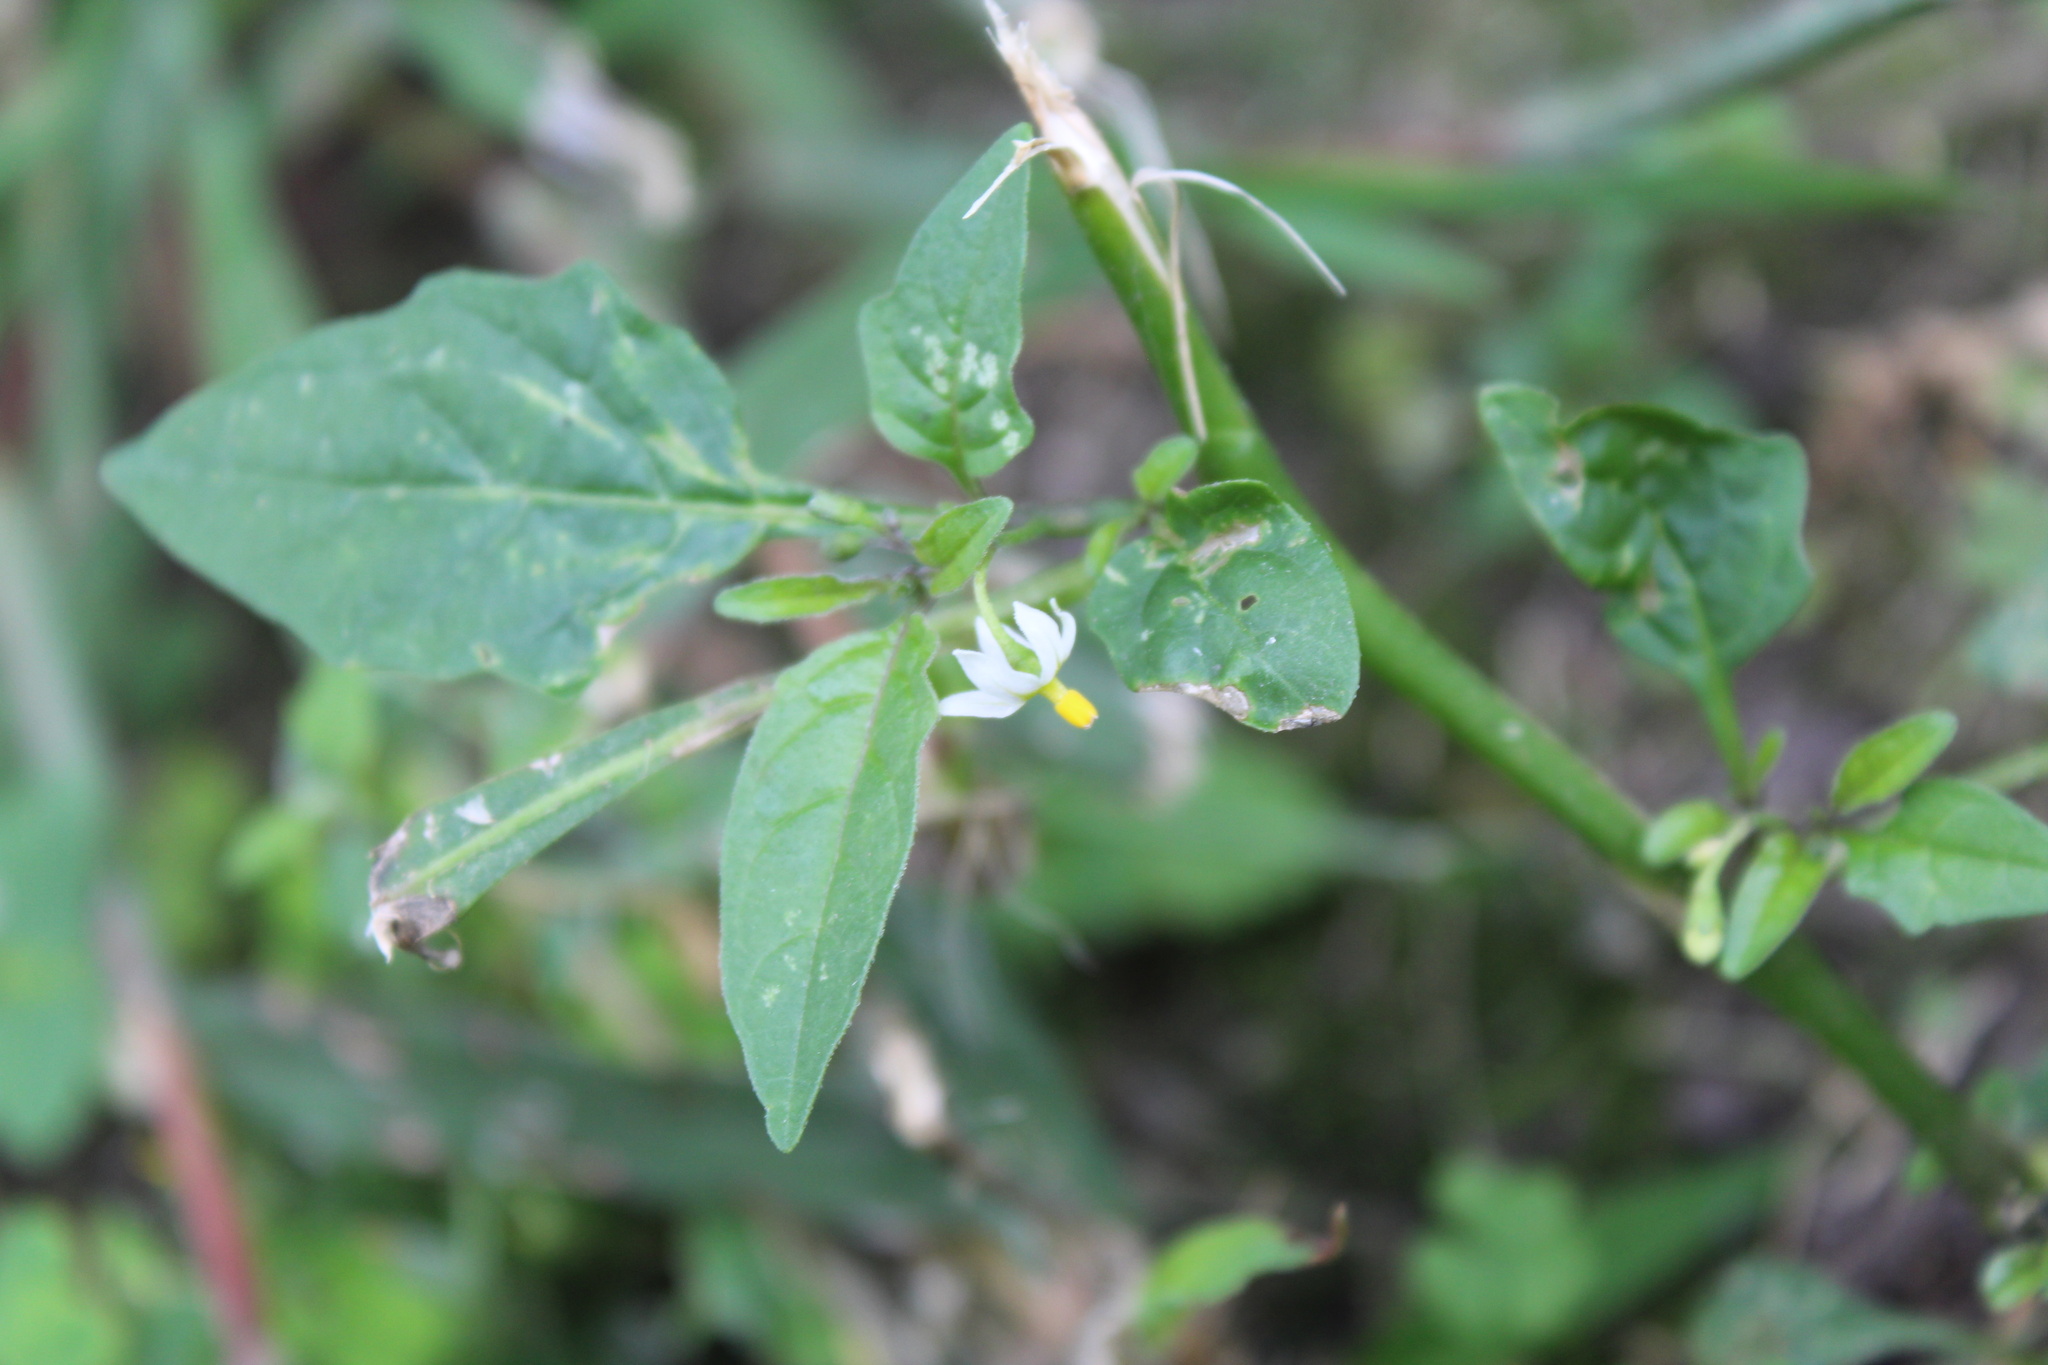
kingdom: Plantae
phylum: Tracheophyta
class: Magnoliopsida
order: Solanales
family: Solanaceae
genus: Solanum
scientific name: Solanum emulans
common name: Eastern black nightshade
